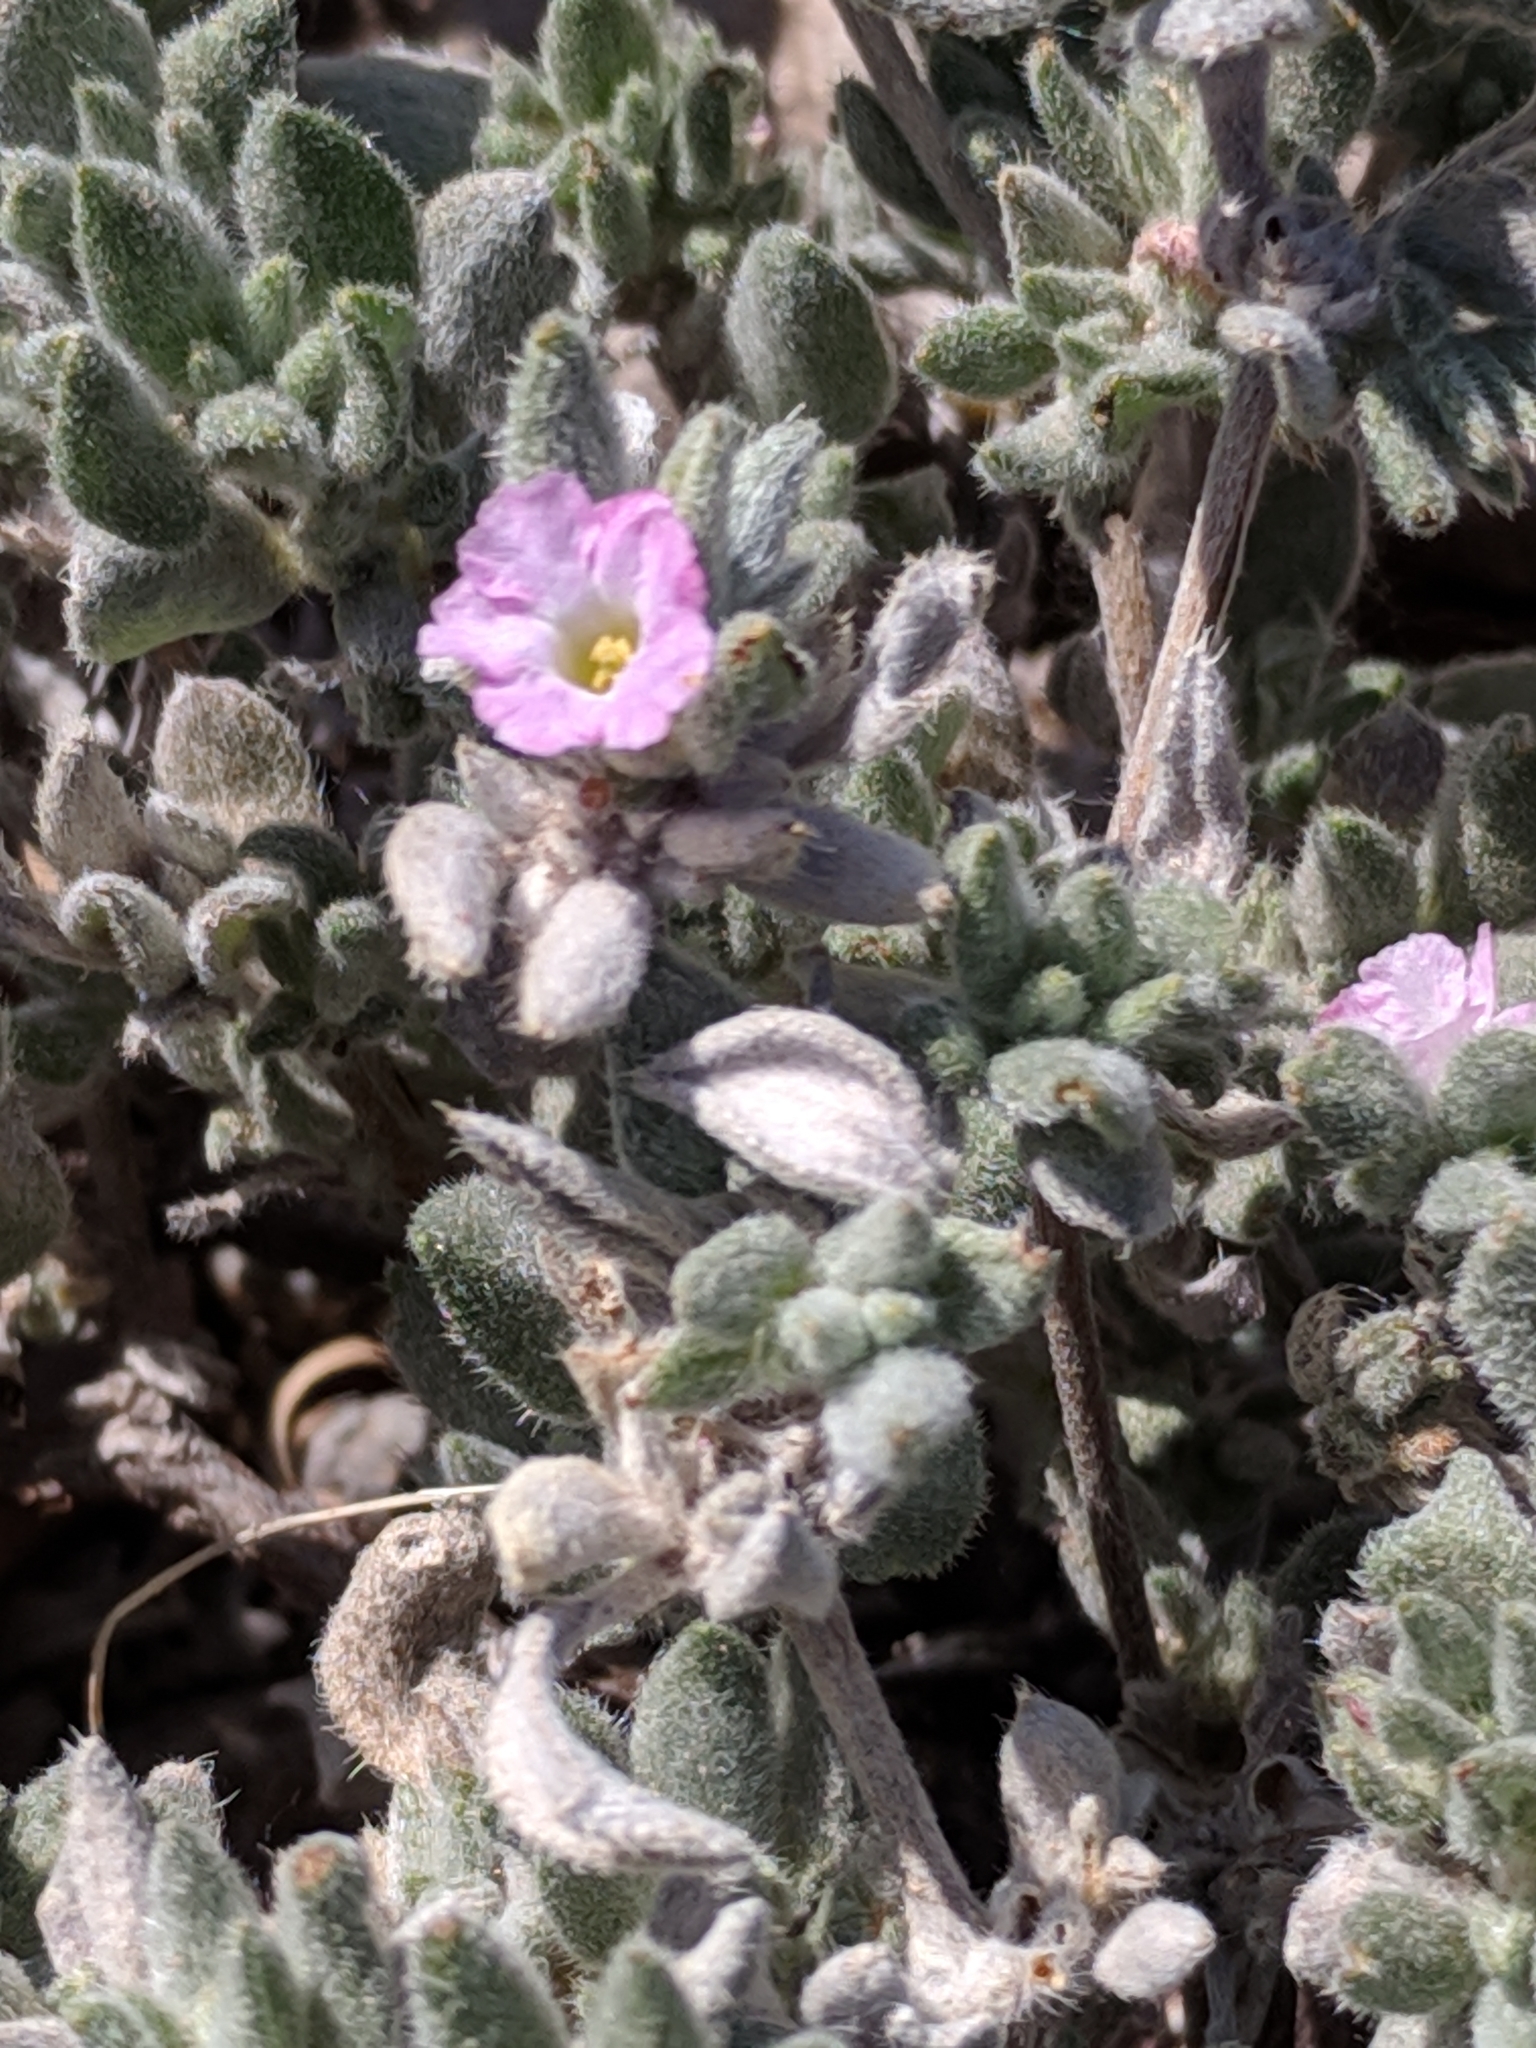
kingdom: Plantae
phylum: Tracheophyta
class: Magnoliopsida
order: Boraginales
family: Ehretiaceae
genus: Tiquilia
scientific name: Tiquilia canescens
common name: Hairy tiquilia
